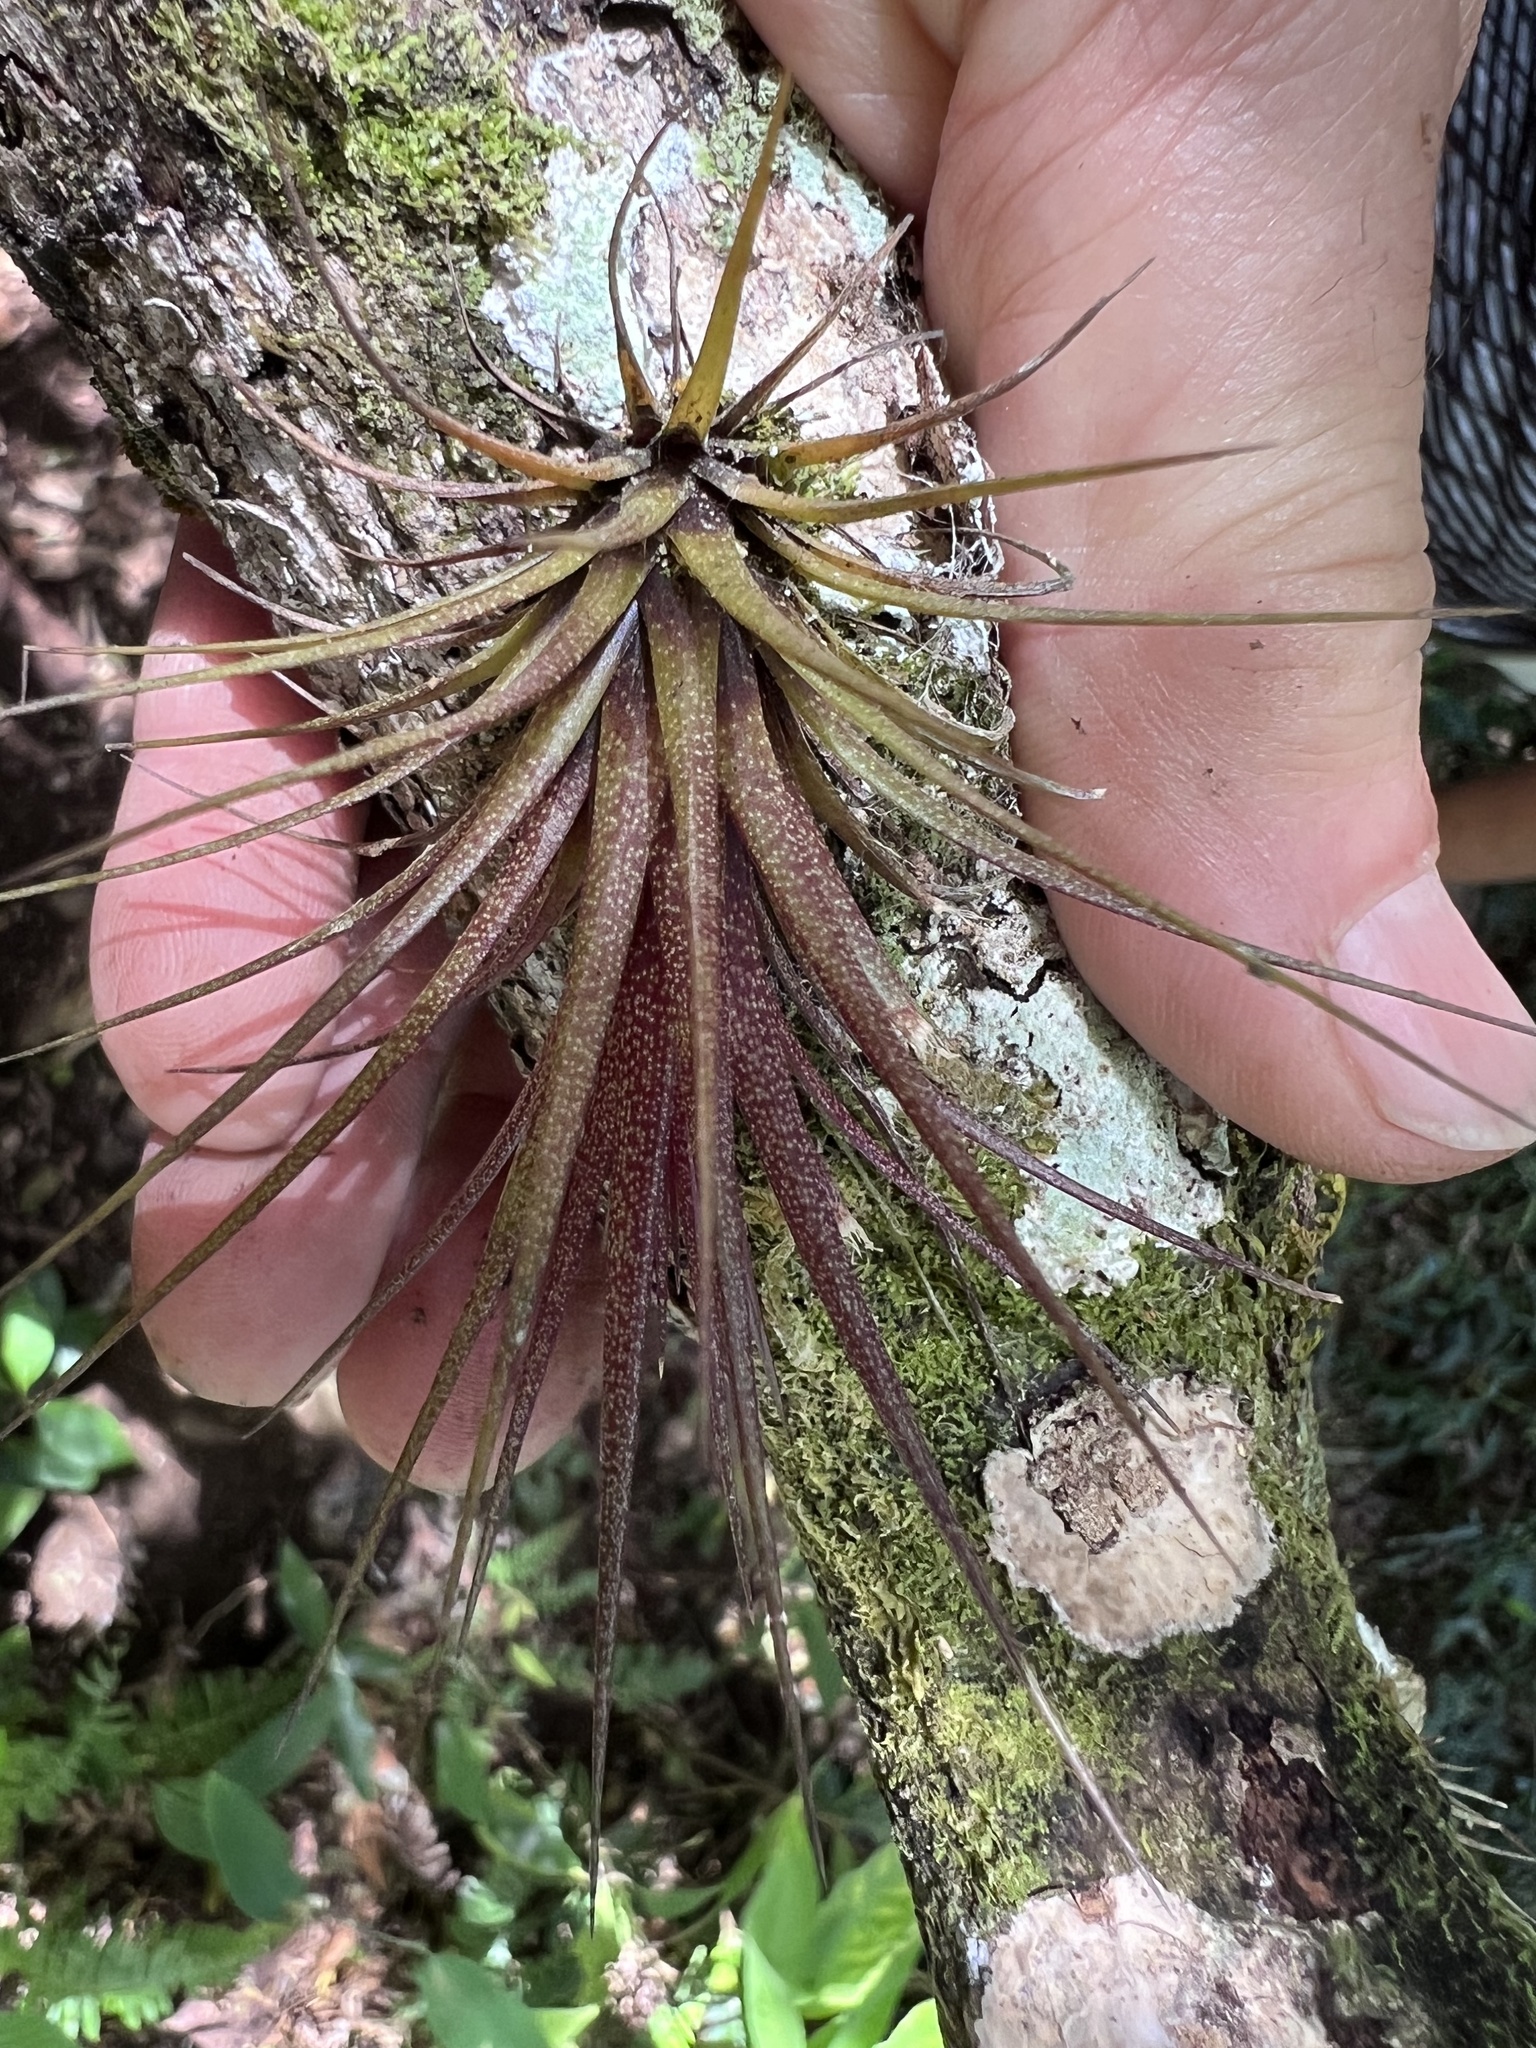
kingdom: Plantae
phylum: Tracheophyta
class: Liliopsida
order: Poales
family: Bromeliaceae
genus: Tillandsia
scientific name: Tillandsia punctulata
